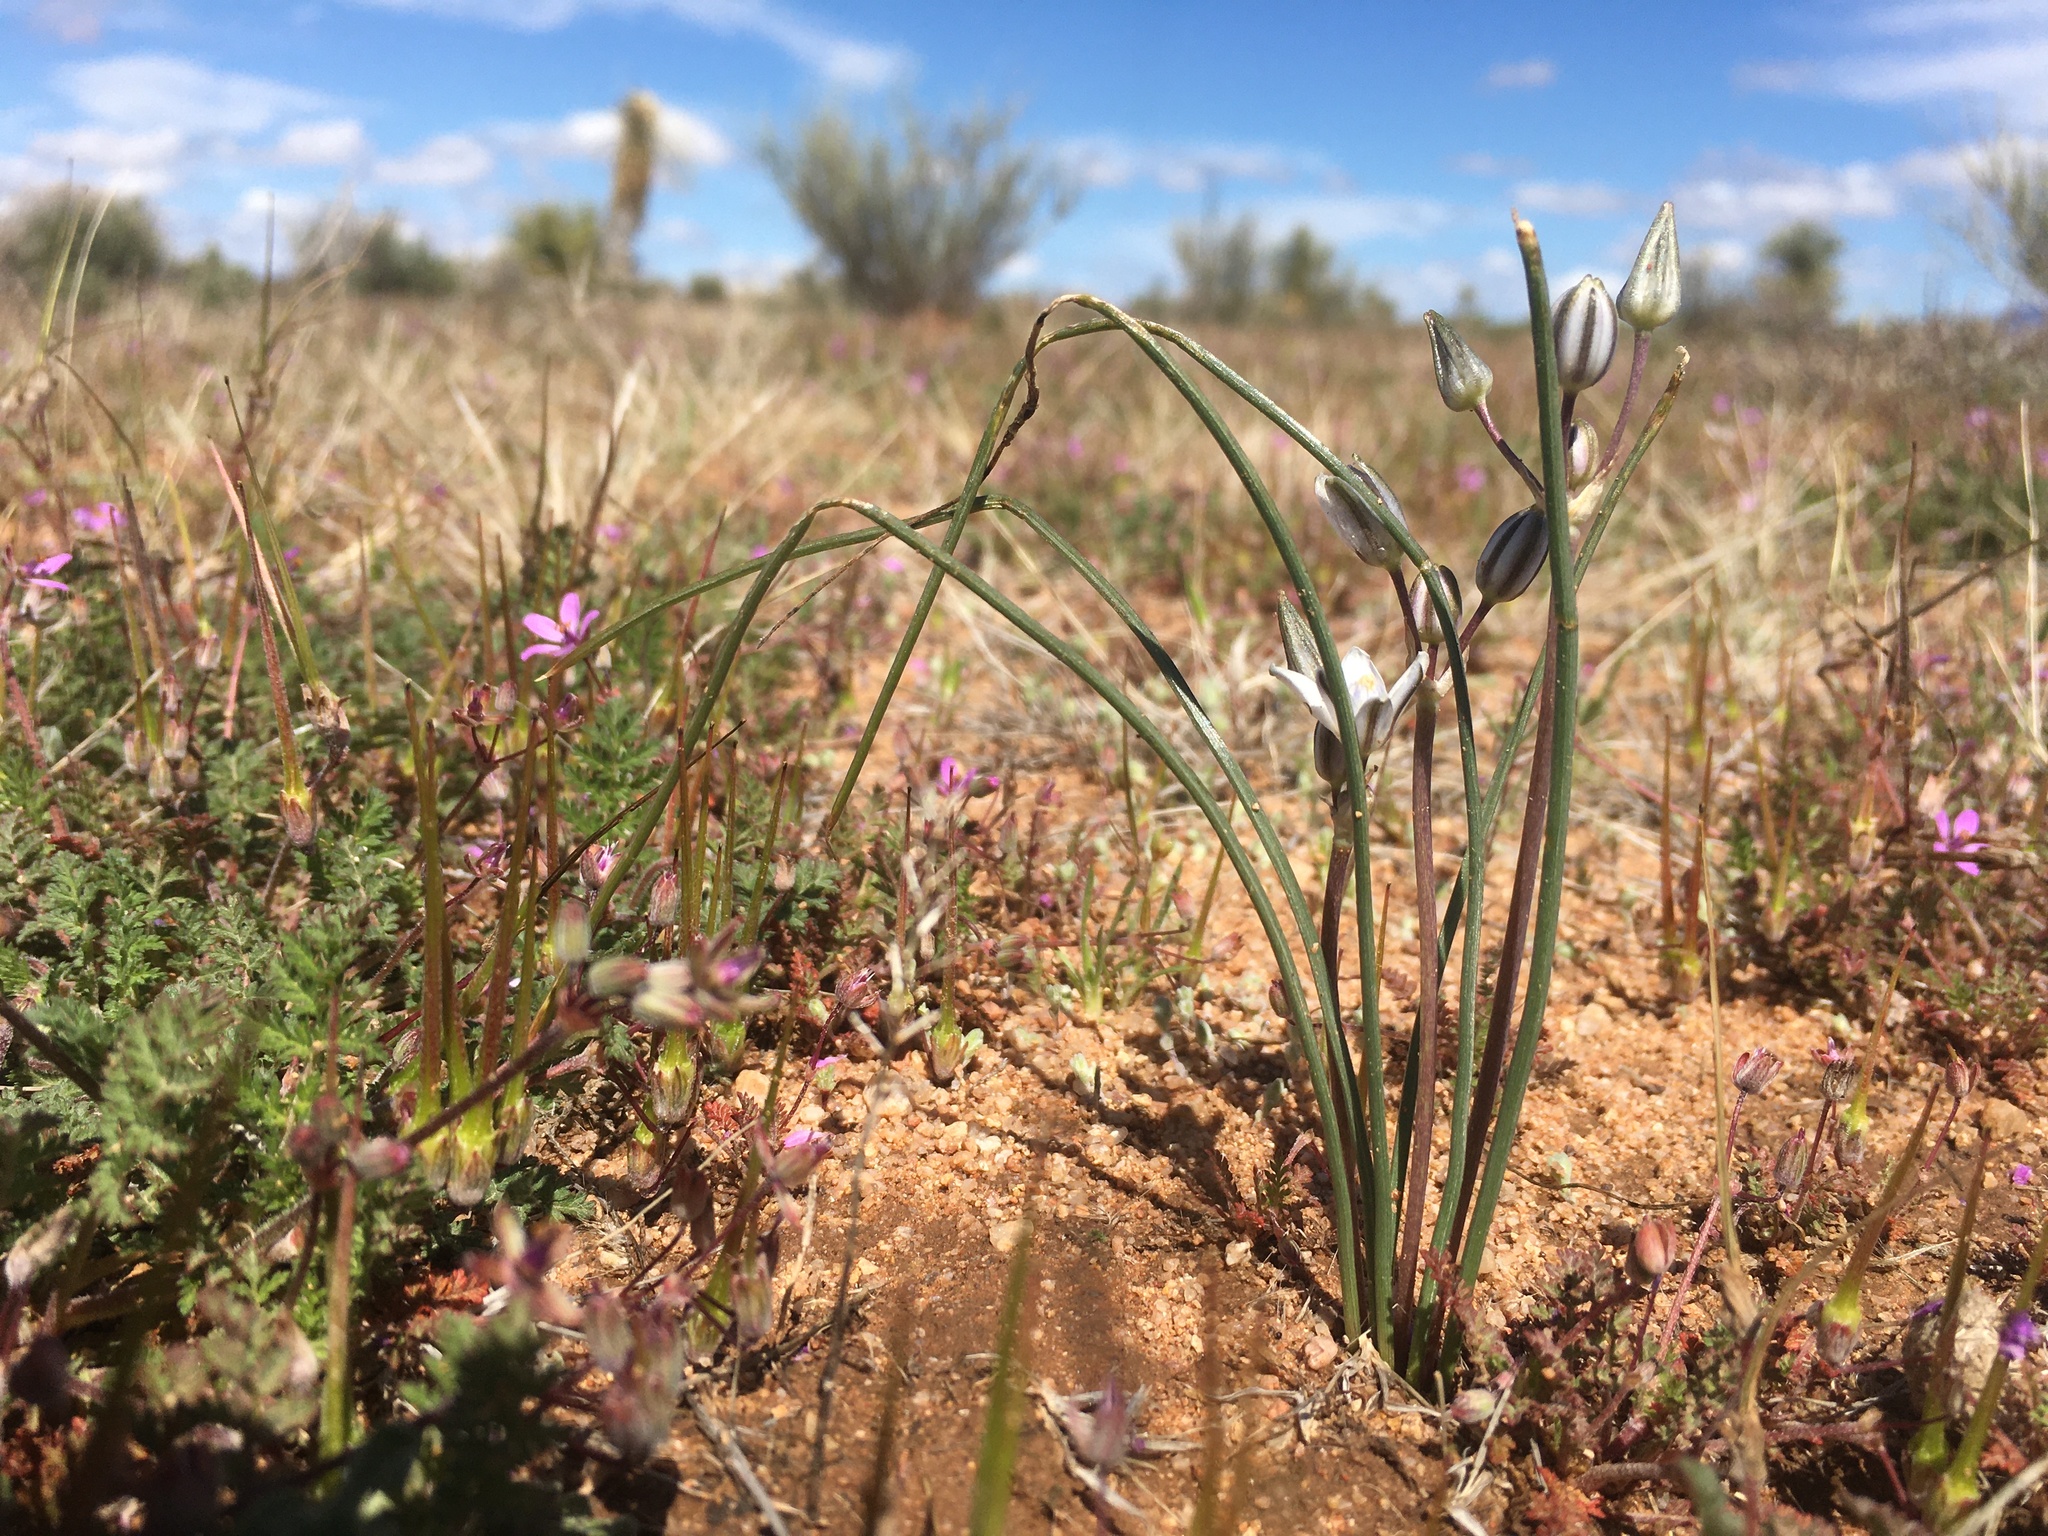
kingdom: Plantae
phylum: Tracheophyta
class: Liliopsida
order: Asparagales
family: Asparagaceae
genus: Muilla
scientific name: Muilla lordsburgana
